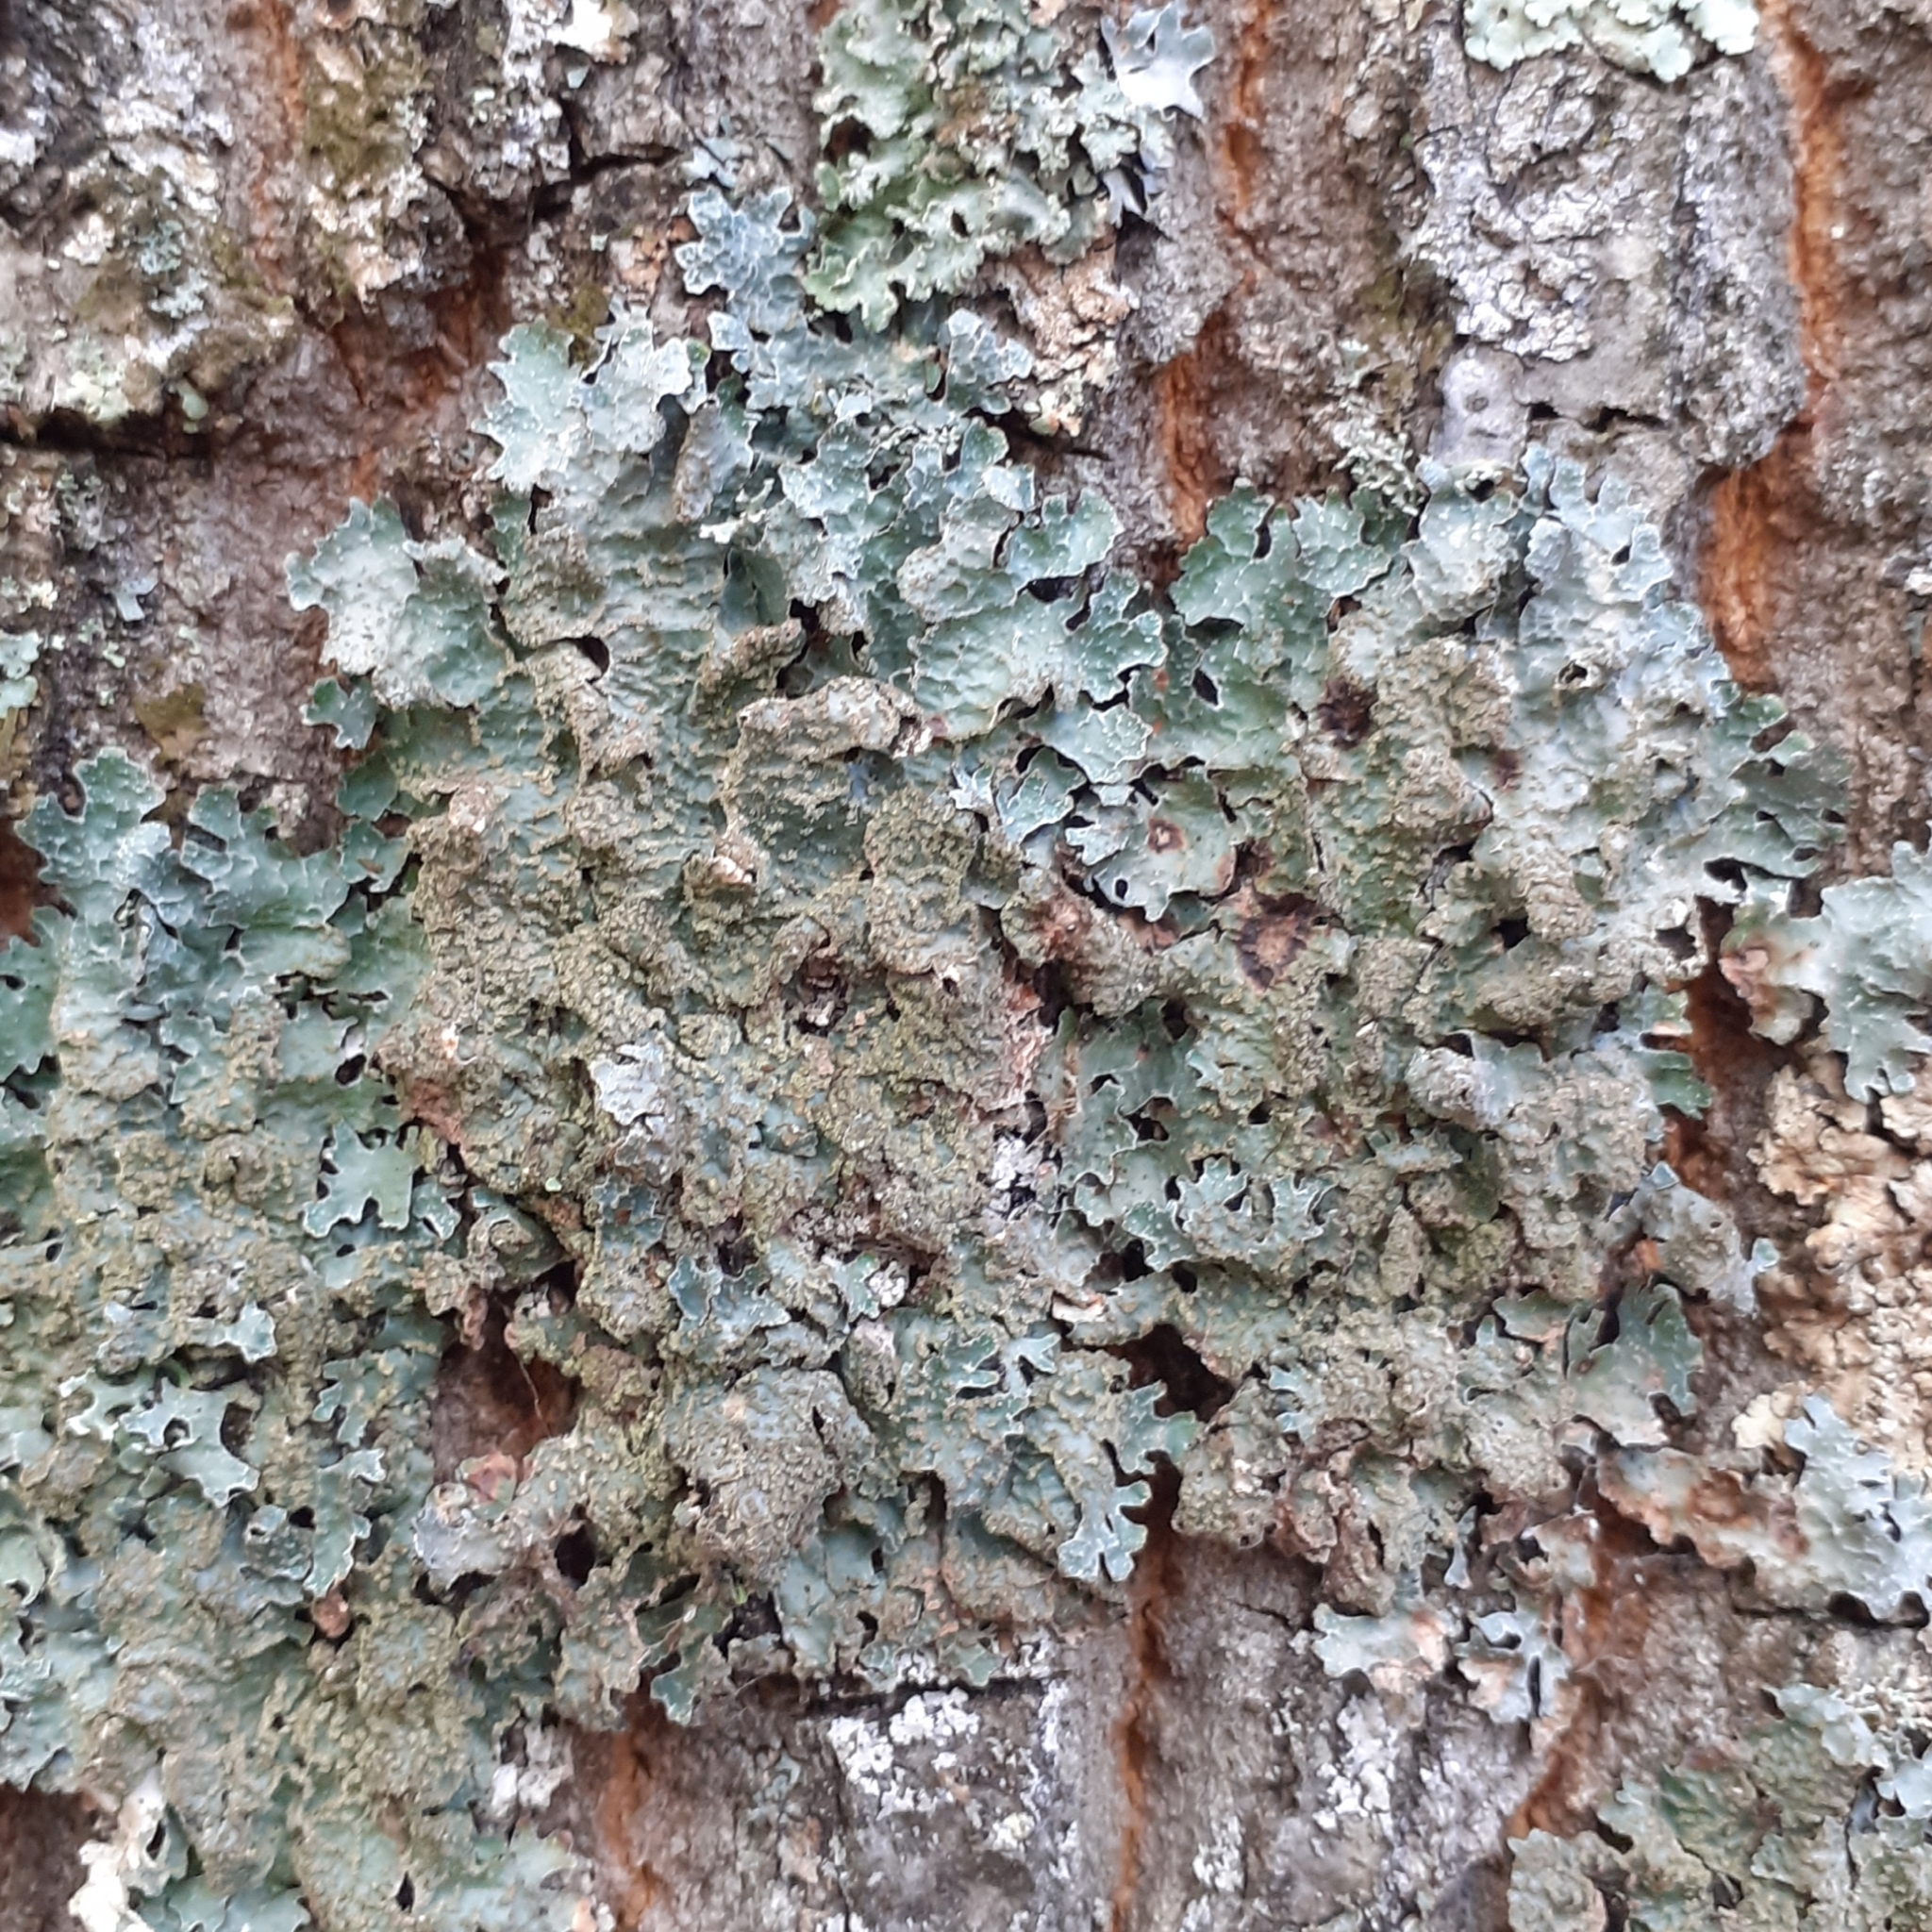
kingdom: Fungi
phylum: Ascomycota
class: Lecanoromycetes
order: Lecanorales
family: Parmeliaceae
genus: Parmelia
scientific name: Parmelia sulcata
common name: Netted shield lichen
